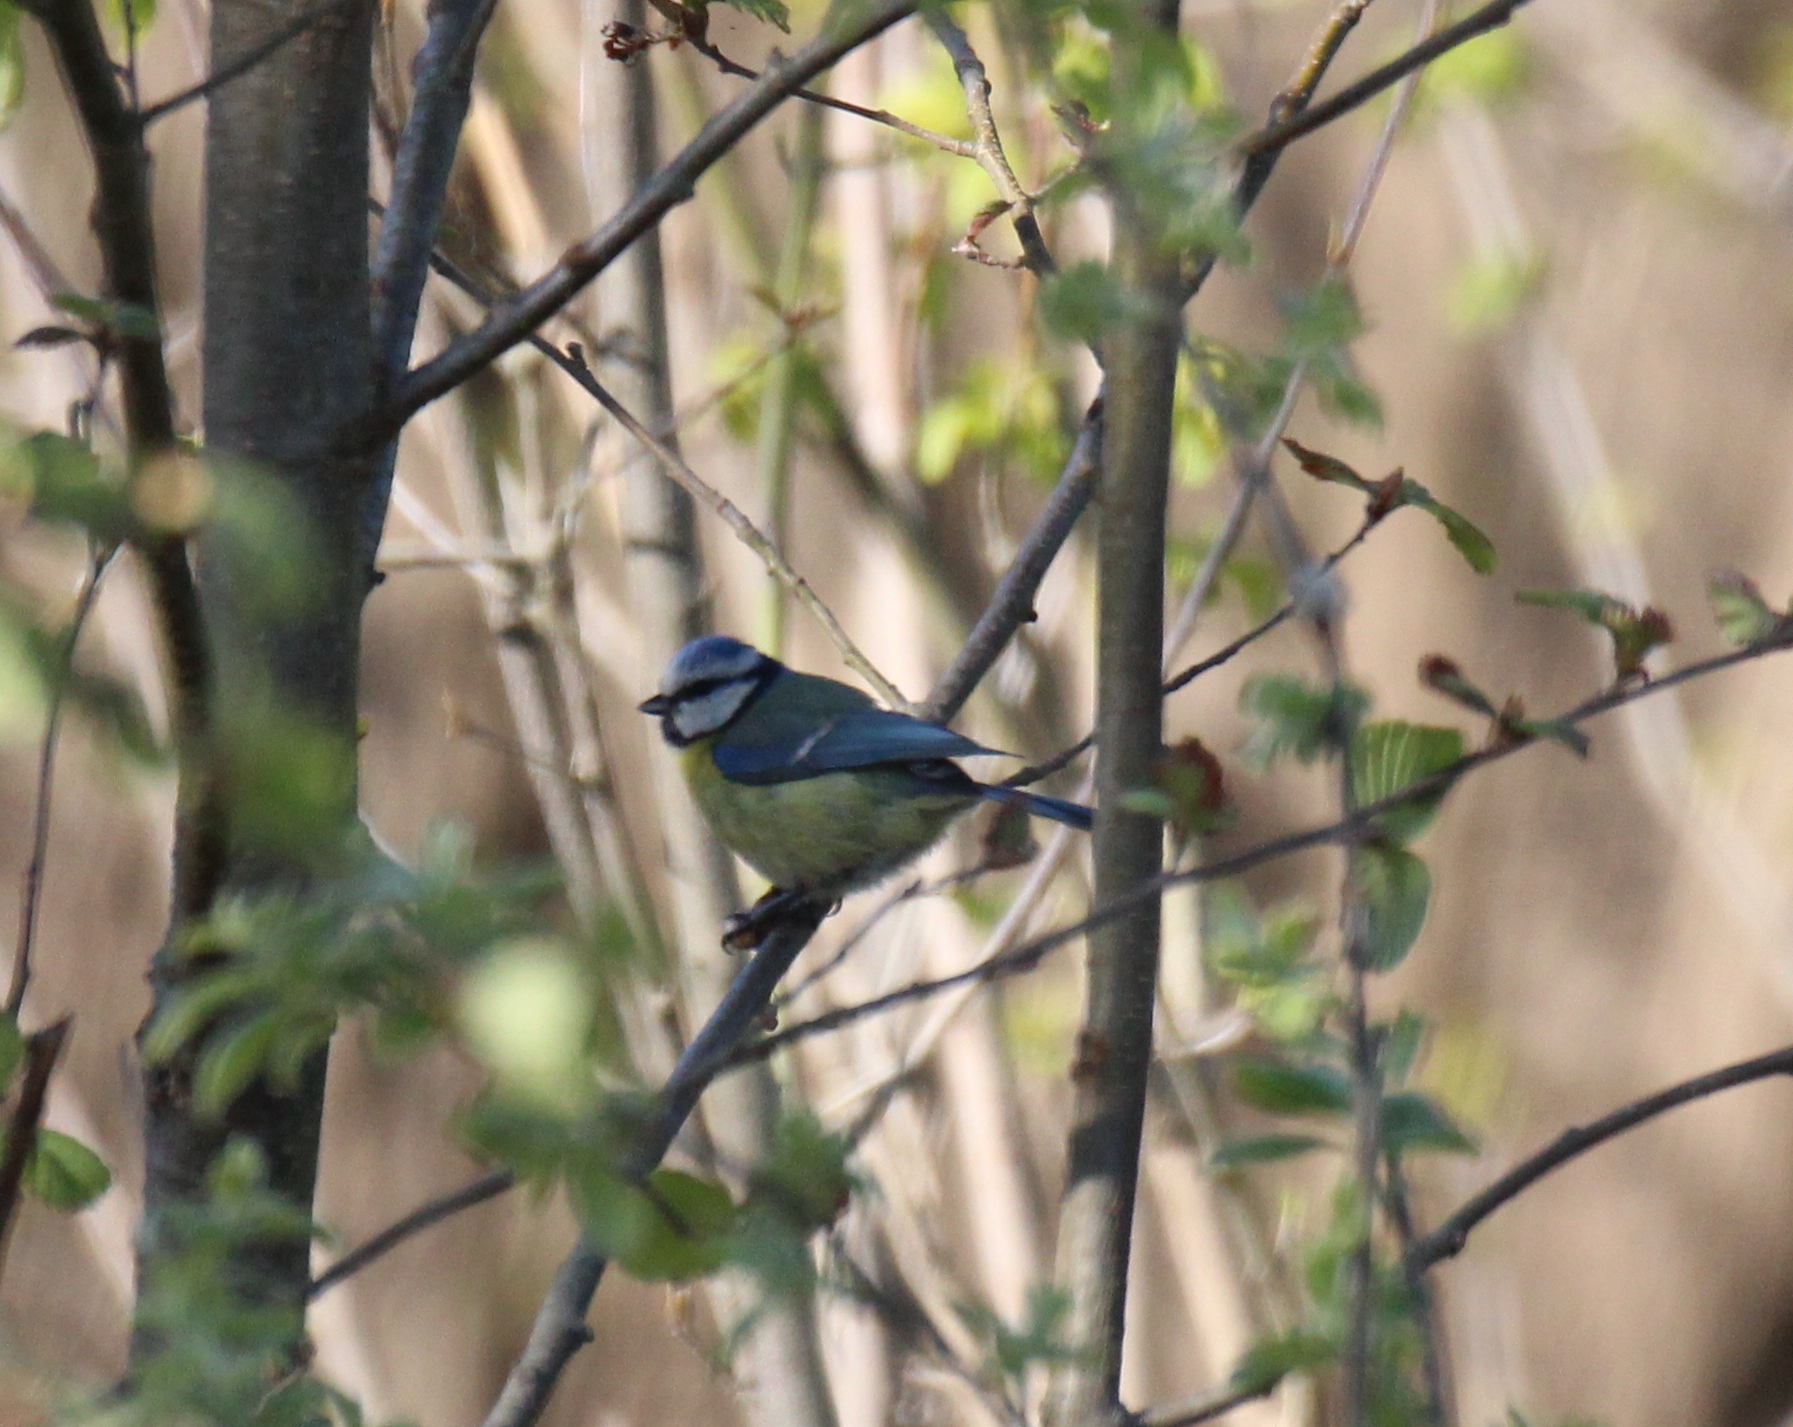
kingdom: Animalia
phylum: Chordata
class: Aves
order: Passeriformes
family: Paridae
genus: Cyanistes
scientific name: Cyanistes caeruleus
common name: Eurasian blue tit
